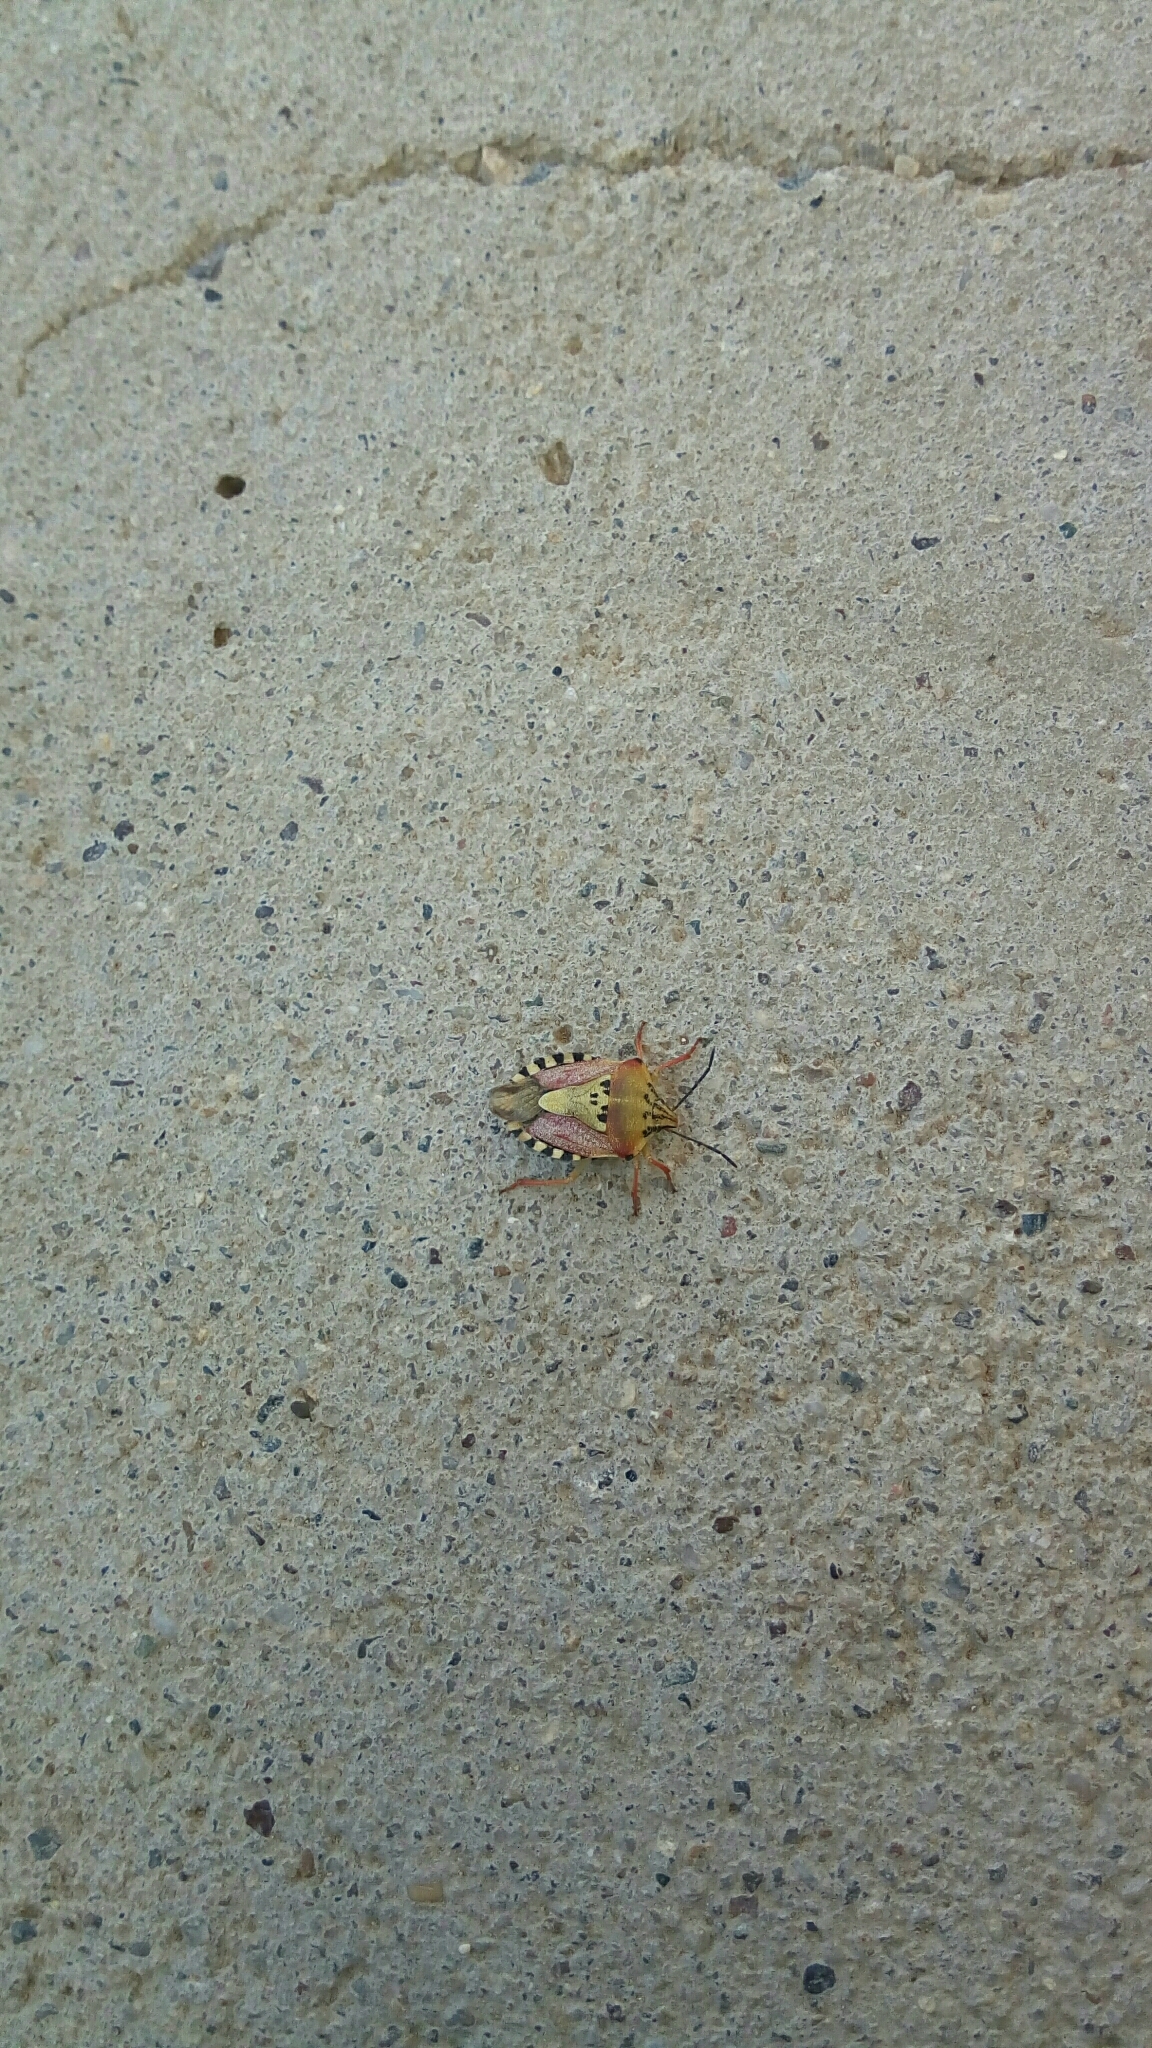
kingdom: Animalia
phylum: Arthropoda
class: Insecta
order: Hemiptera
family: Pentatomidae
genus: Carpocoris
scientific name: Carpocoris purpureipennis
